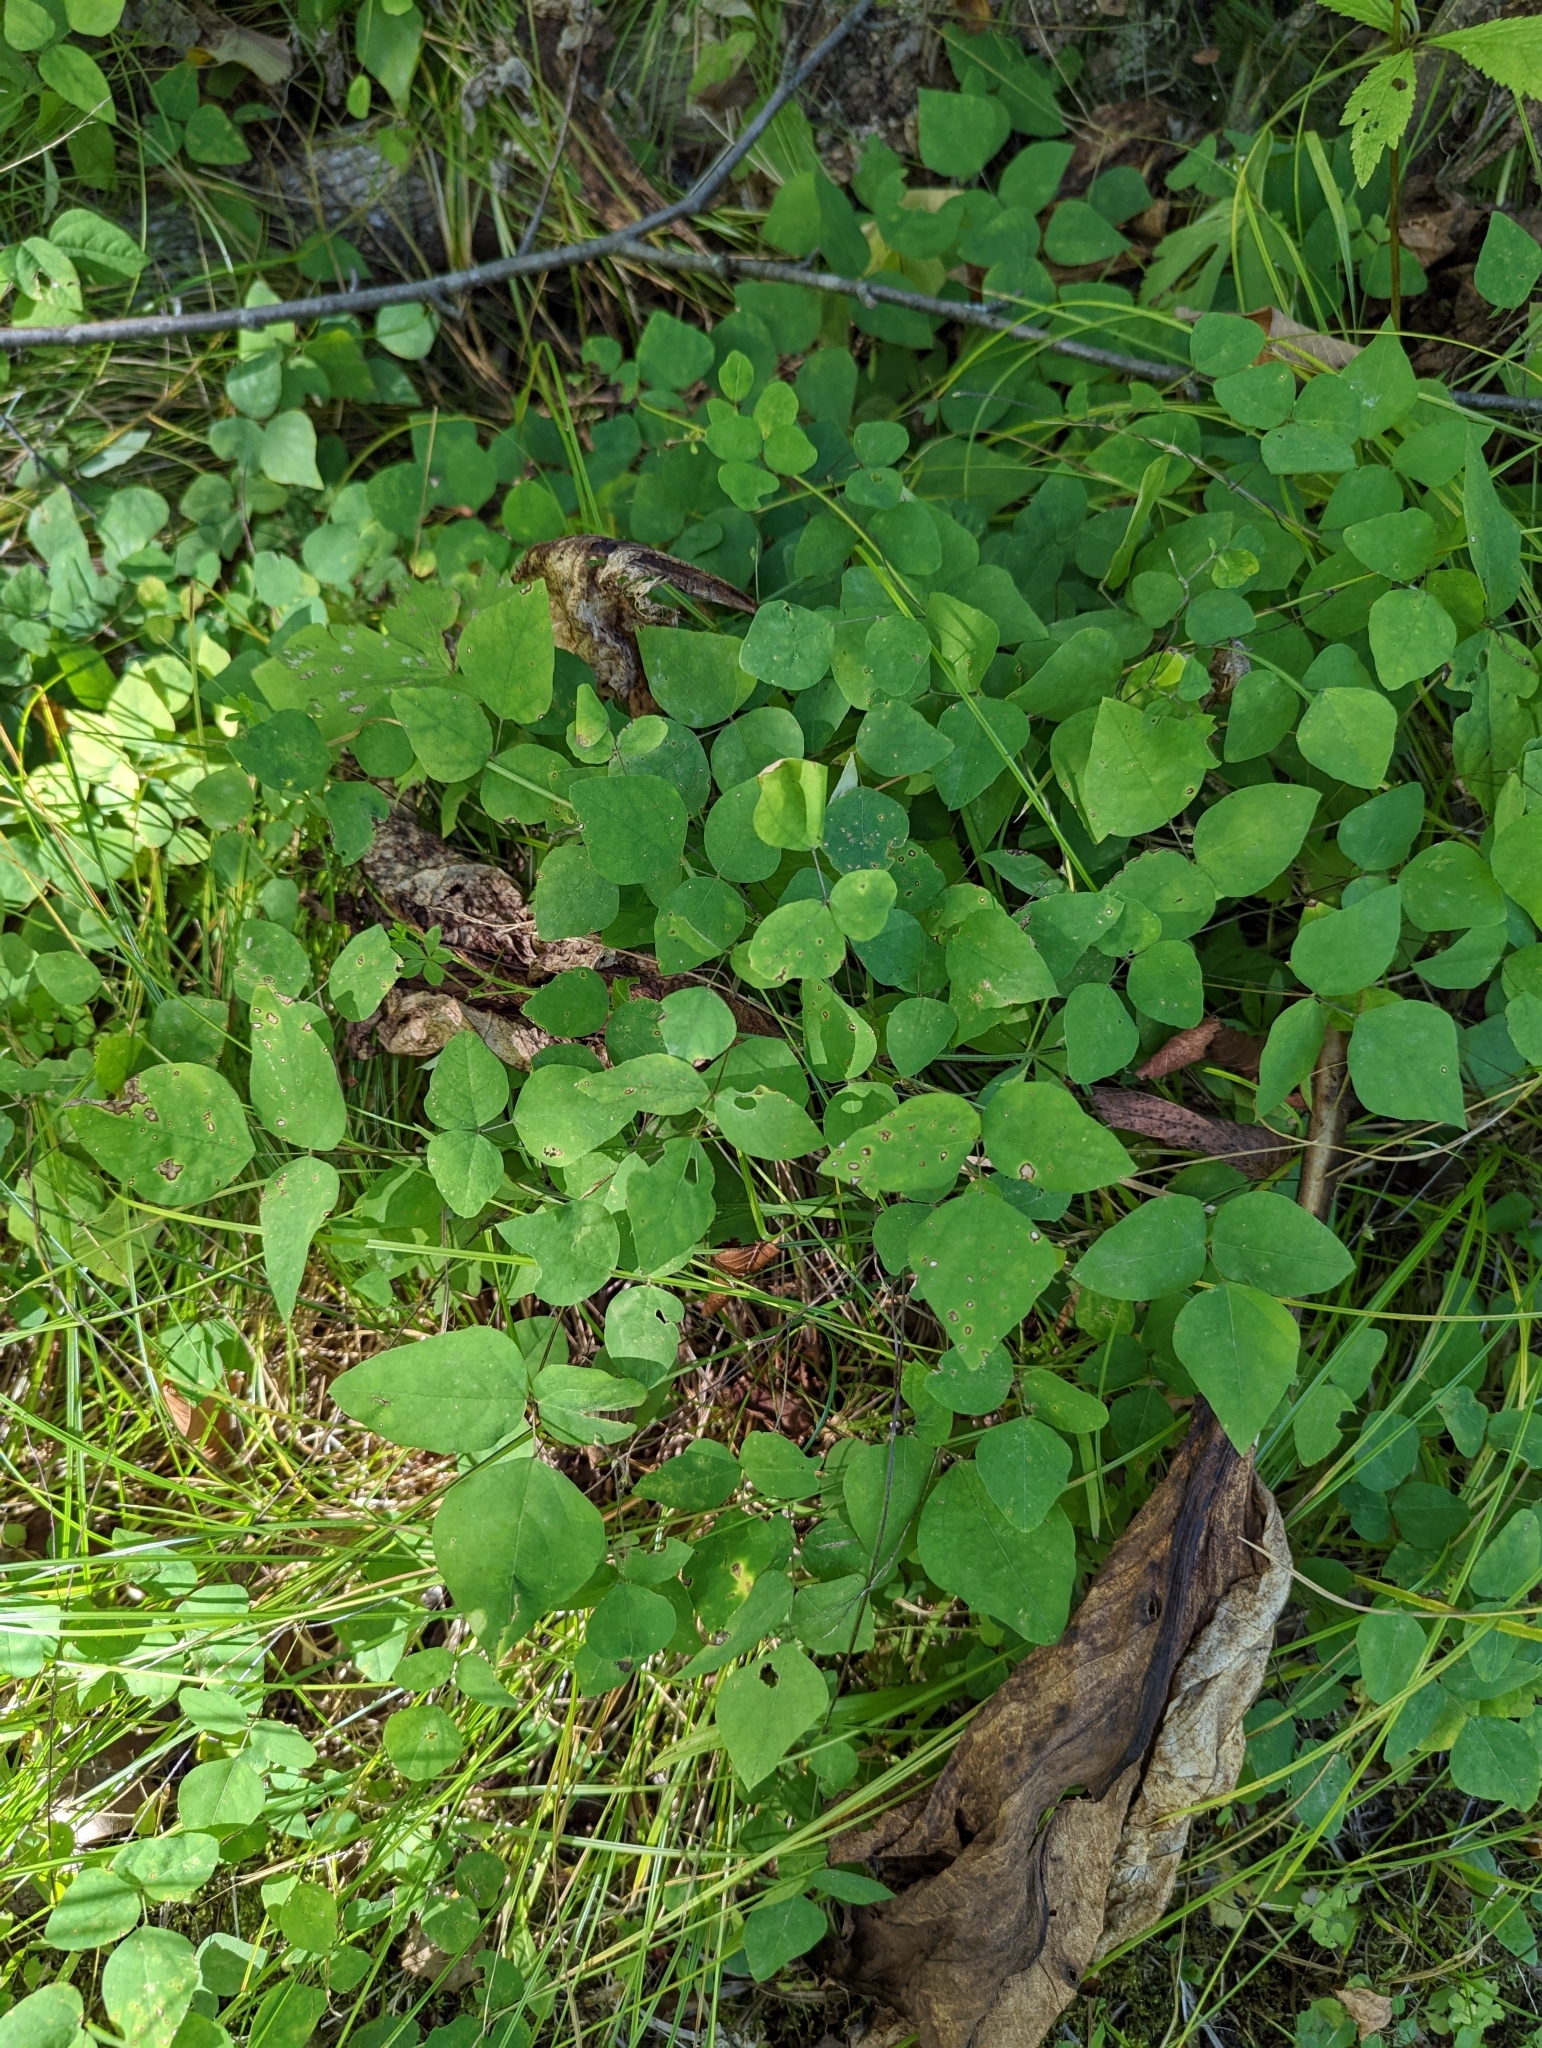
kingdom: Plantae
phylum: Tracheophyta
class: Magnoliopsida
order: Fabales
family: Fabaceae
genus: Amphicarpaea
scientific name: Amphicarpaea bracteata
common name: American hog peanut
